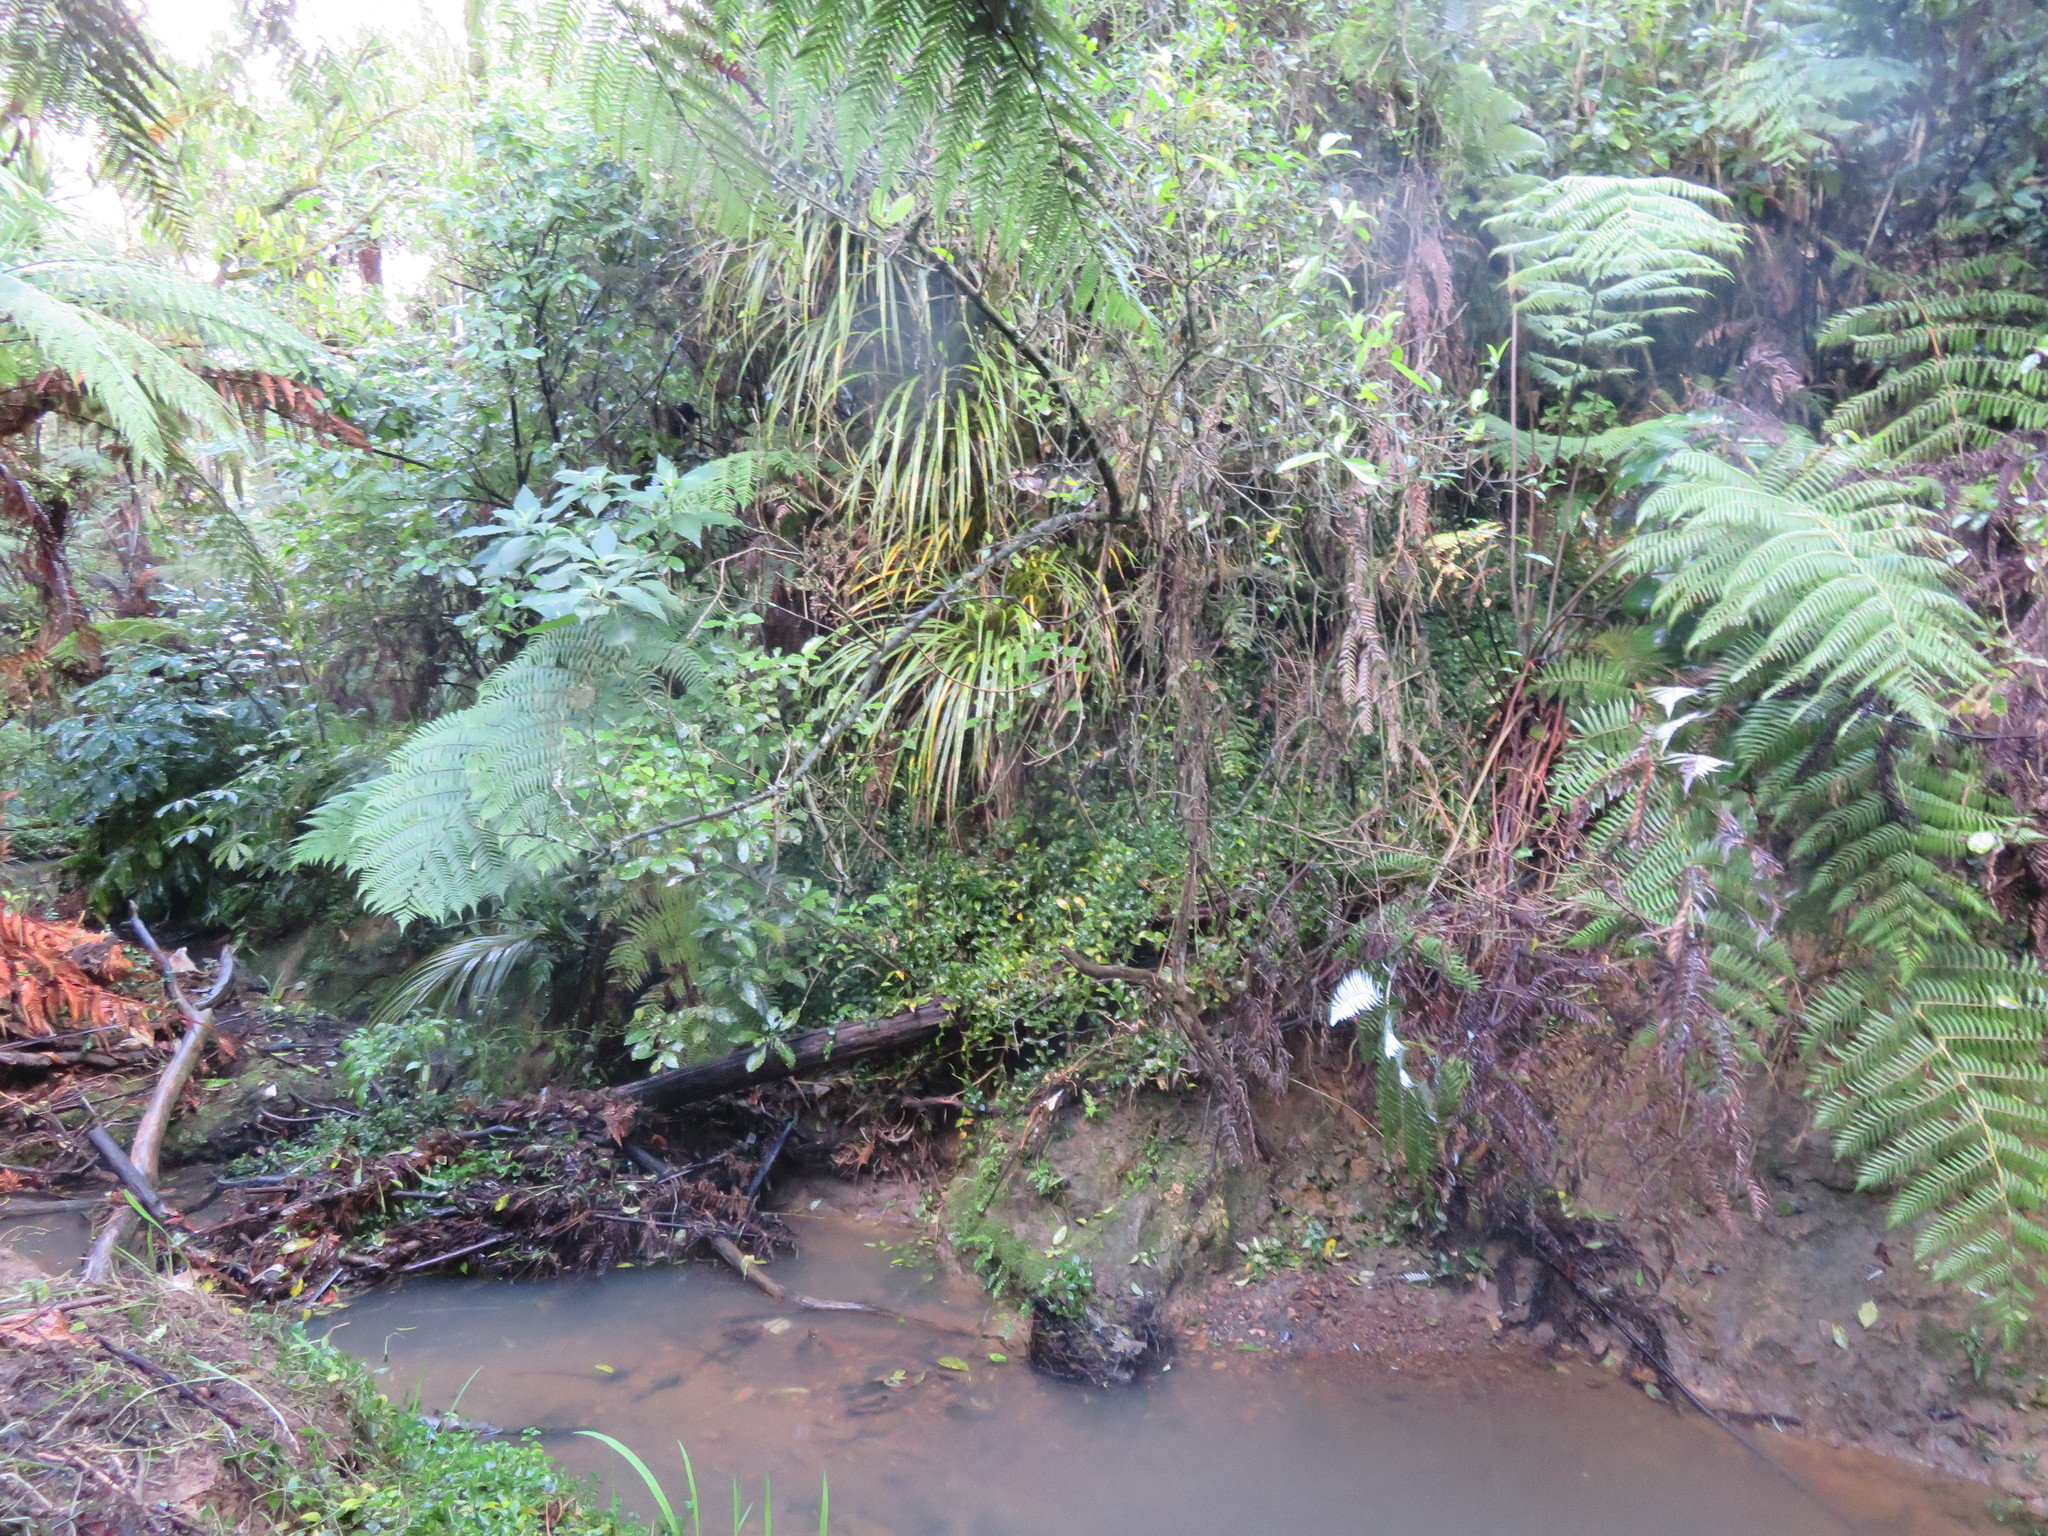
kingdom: Plantae
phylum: Tracheophyta
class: Magnoliopsida
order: Malpighiales
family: Violaceae
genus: Melicytus
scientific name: Melicytus ramiflorus
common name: Mahoe
